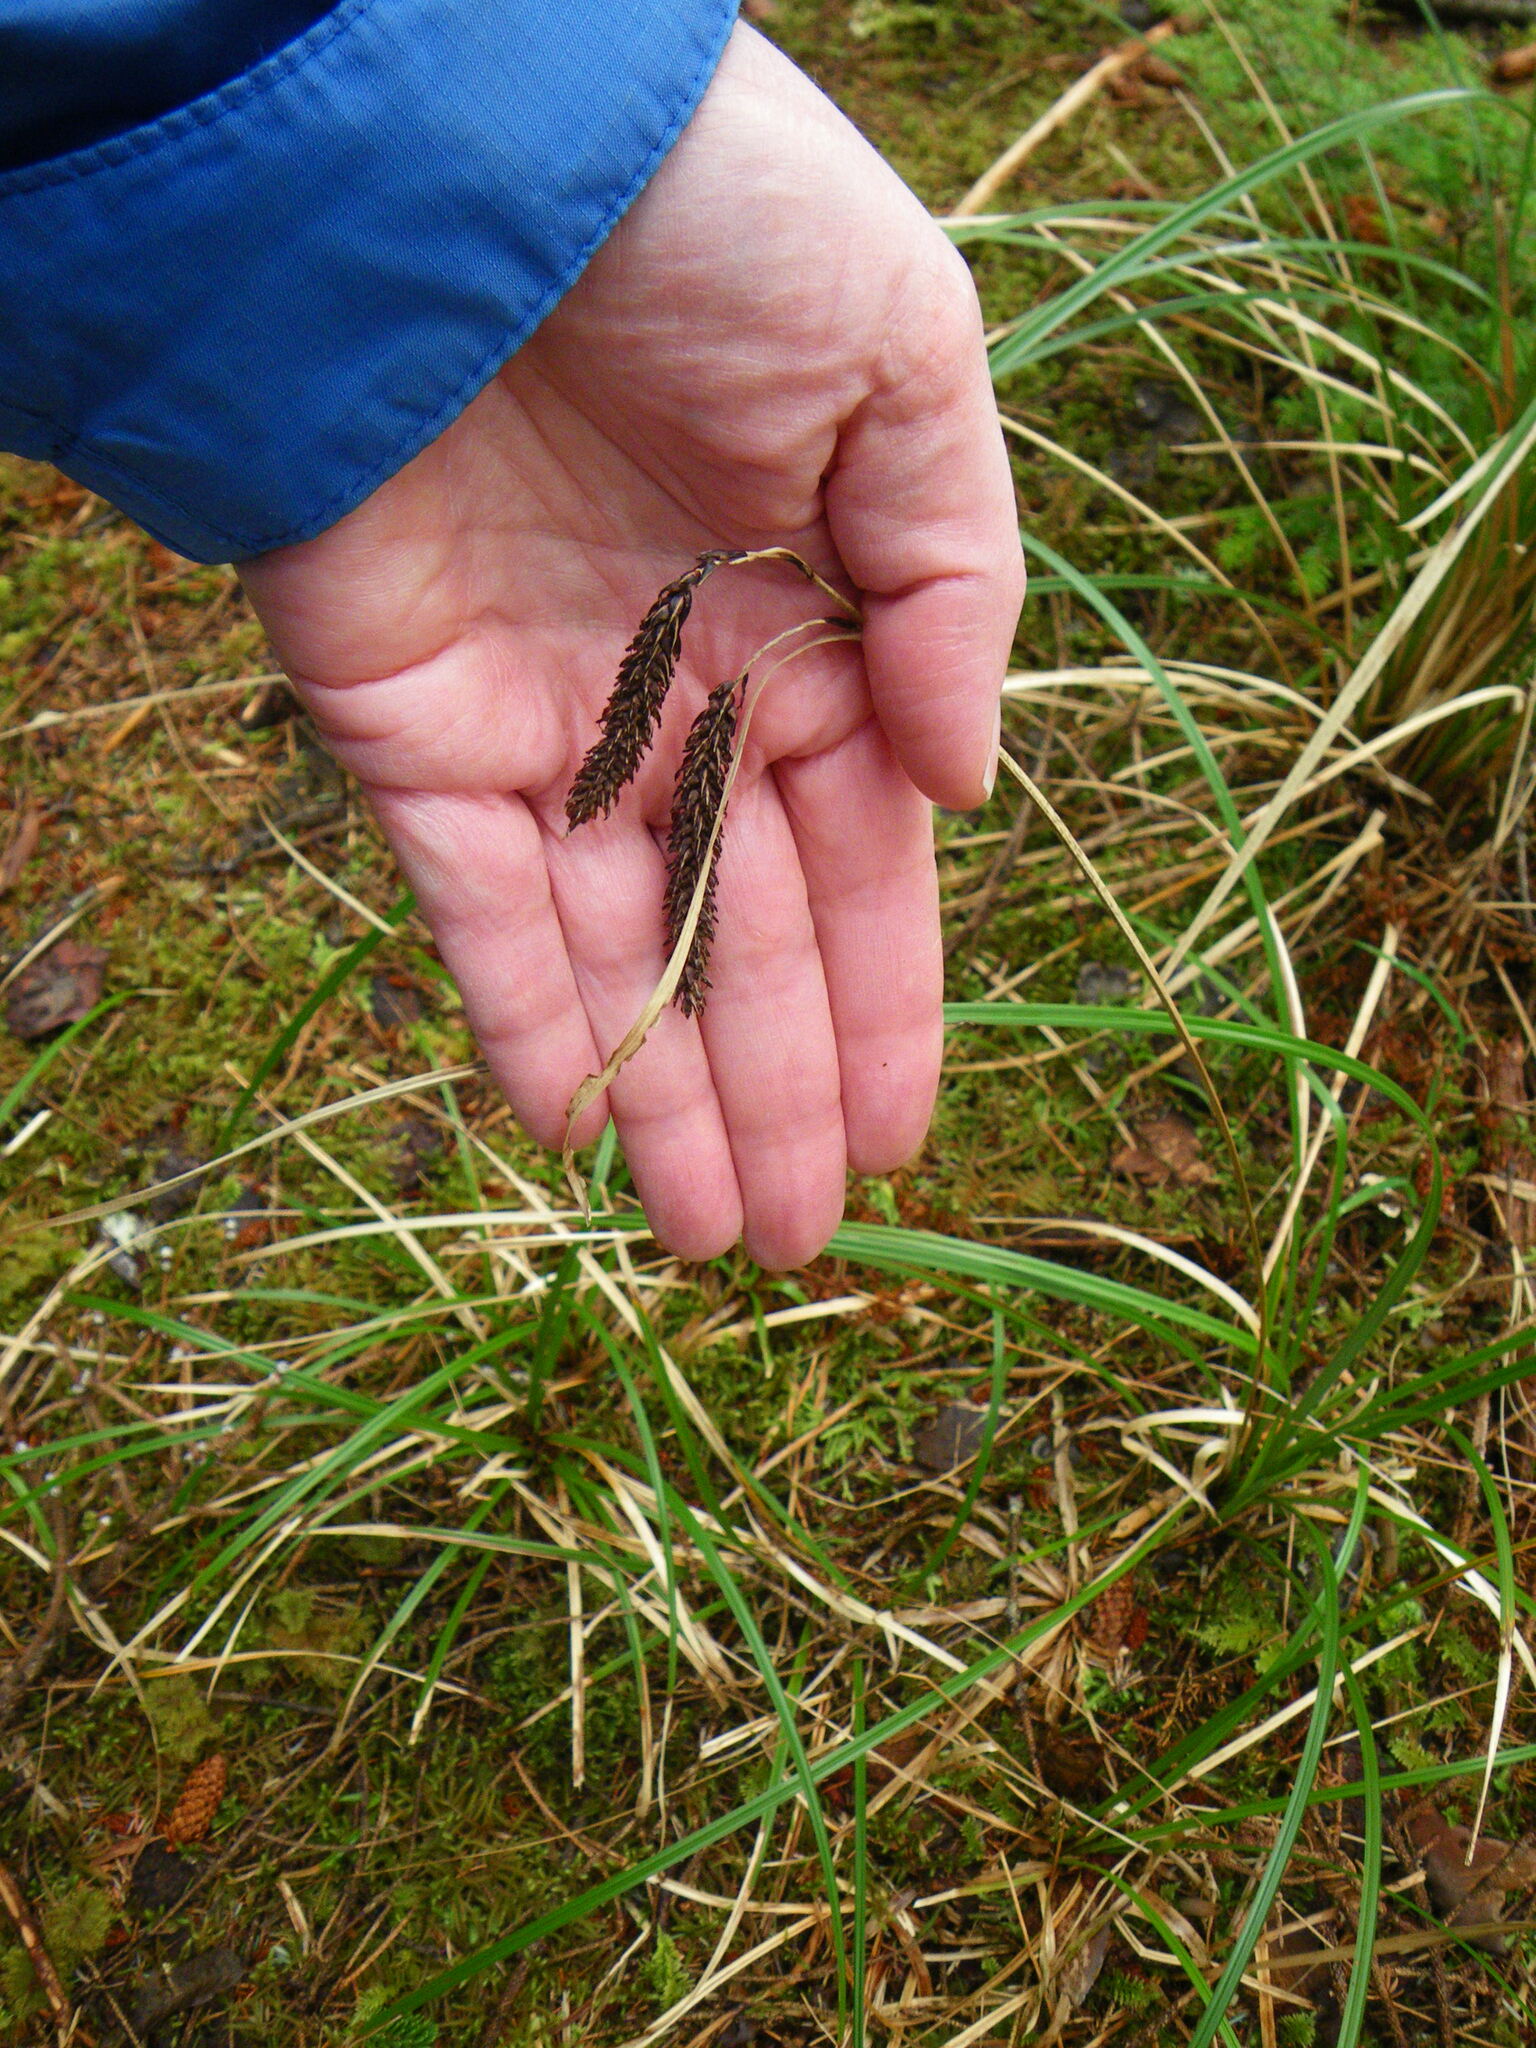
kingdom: Plantae
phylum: Tracheophyta
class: Liliopsida
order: Poales
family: Cyperaceae
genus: Carex
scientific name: Carex obnupta
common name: Slough sedge
